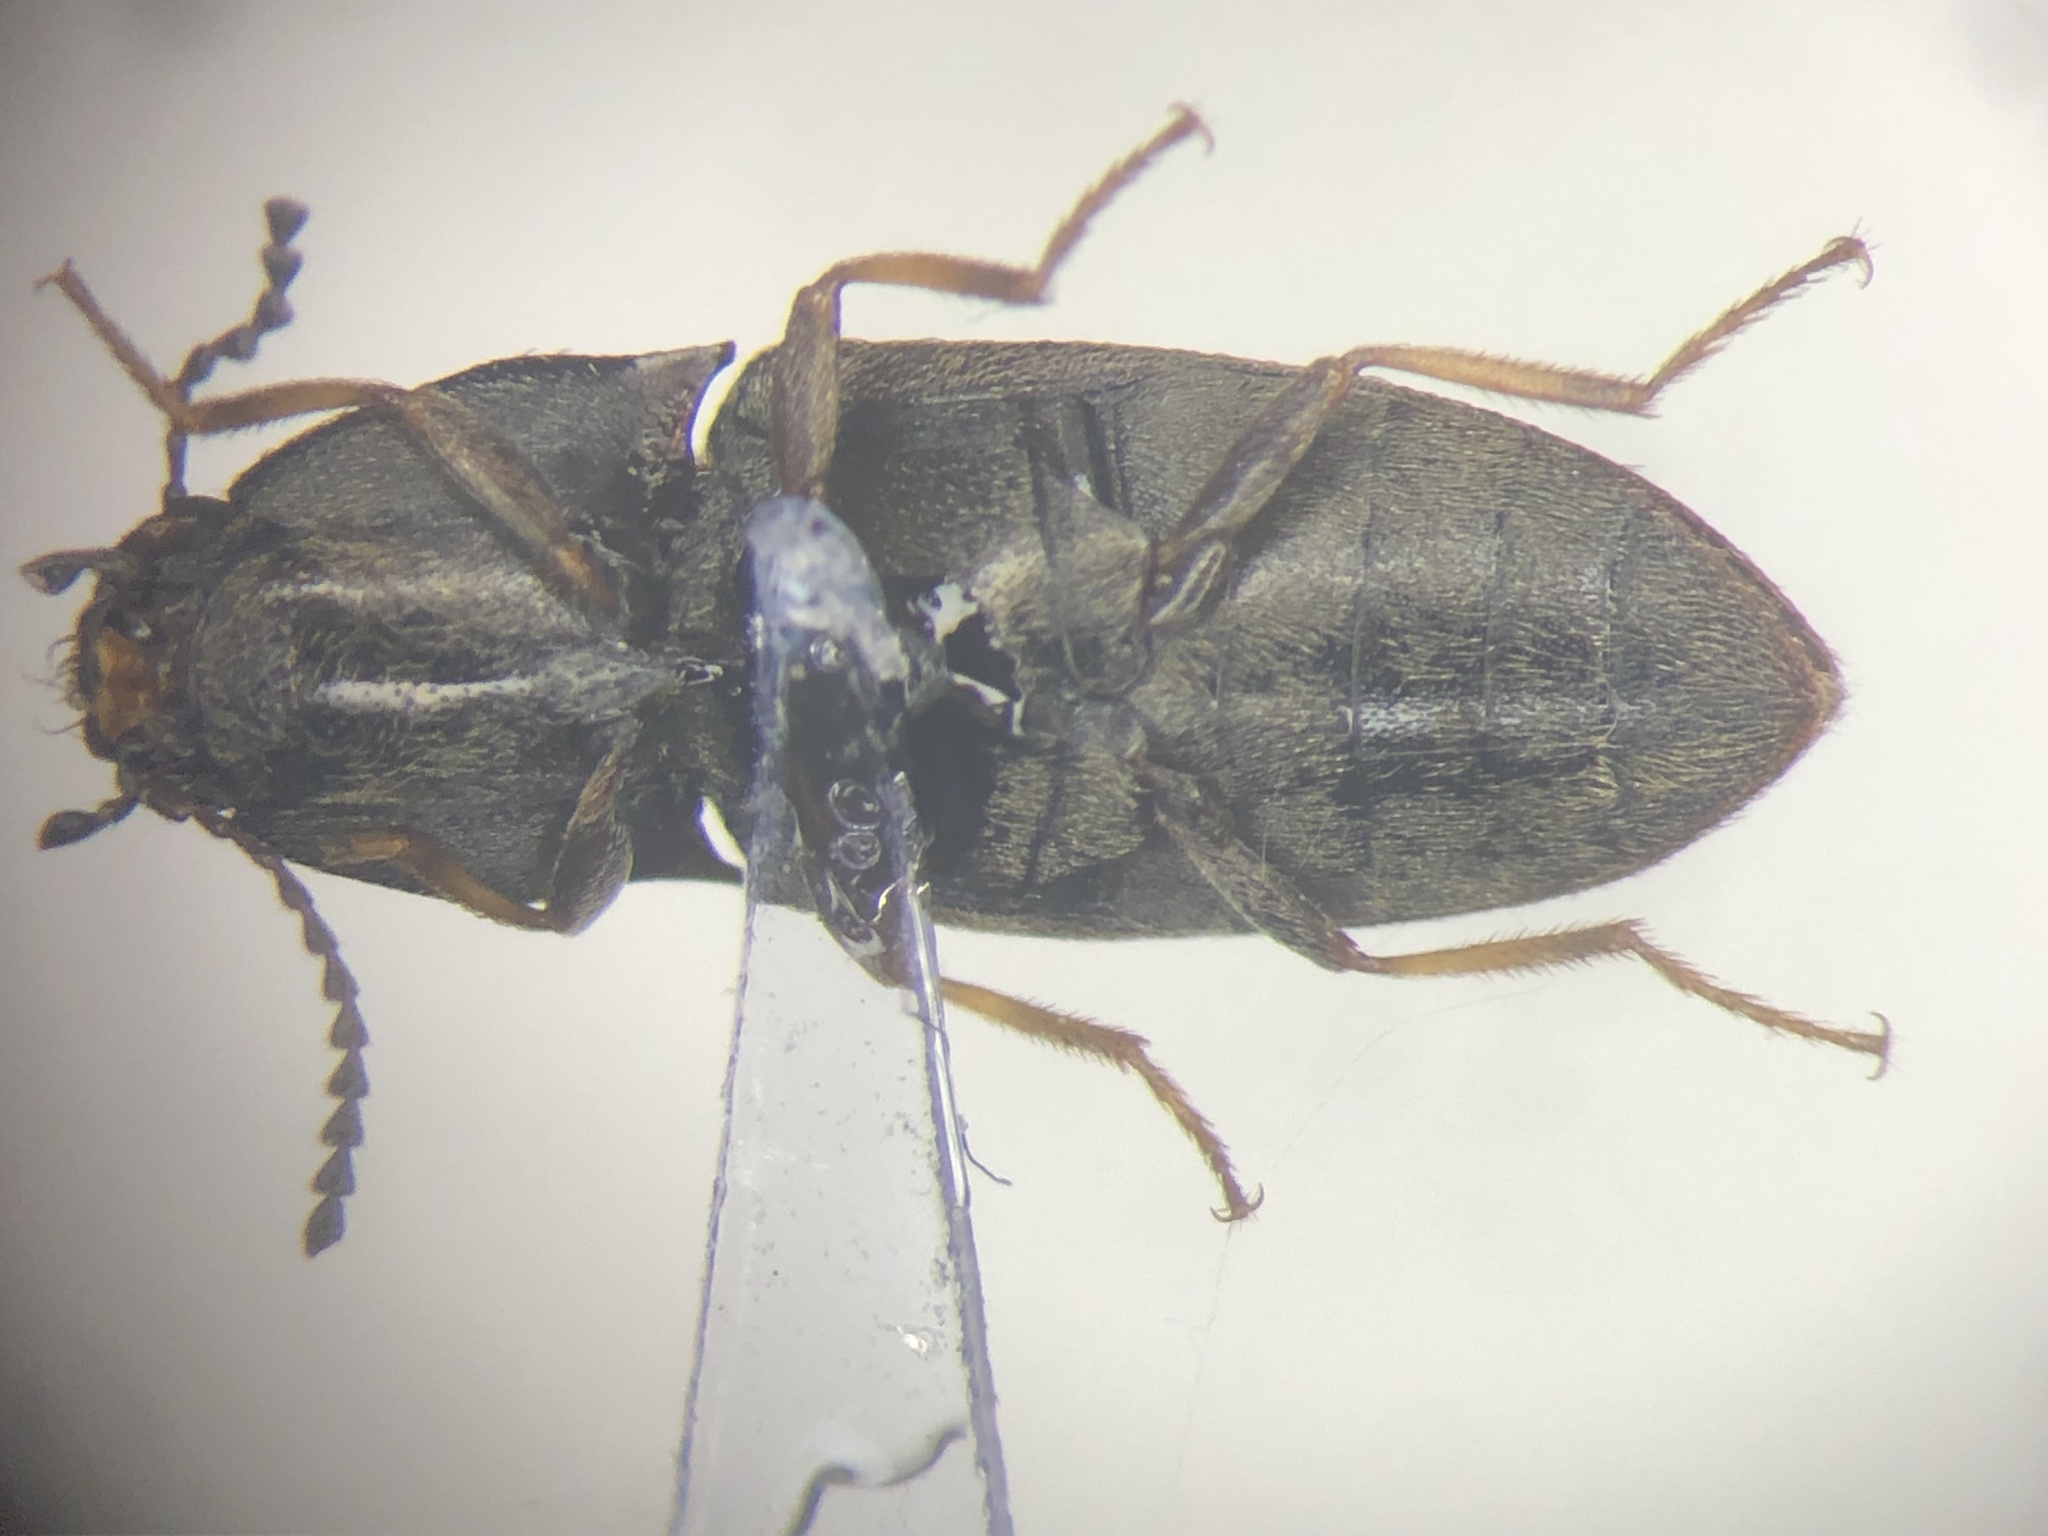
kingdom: Animalia
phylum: Arthropoda
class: Insecta
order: Coleoptera
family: Elateridae
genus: Hypnoidus
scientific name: Hypnoidus abbreviatus
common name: Abbreviated wireworm
